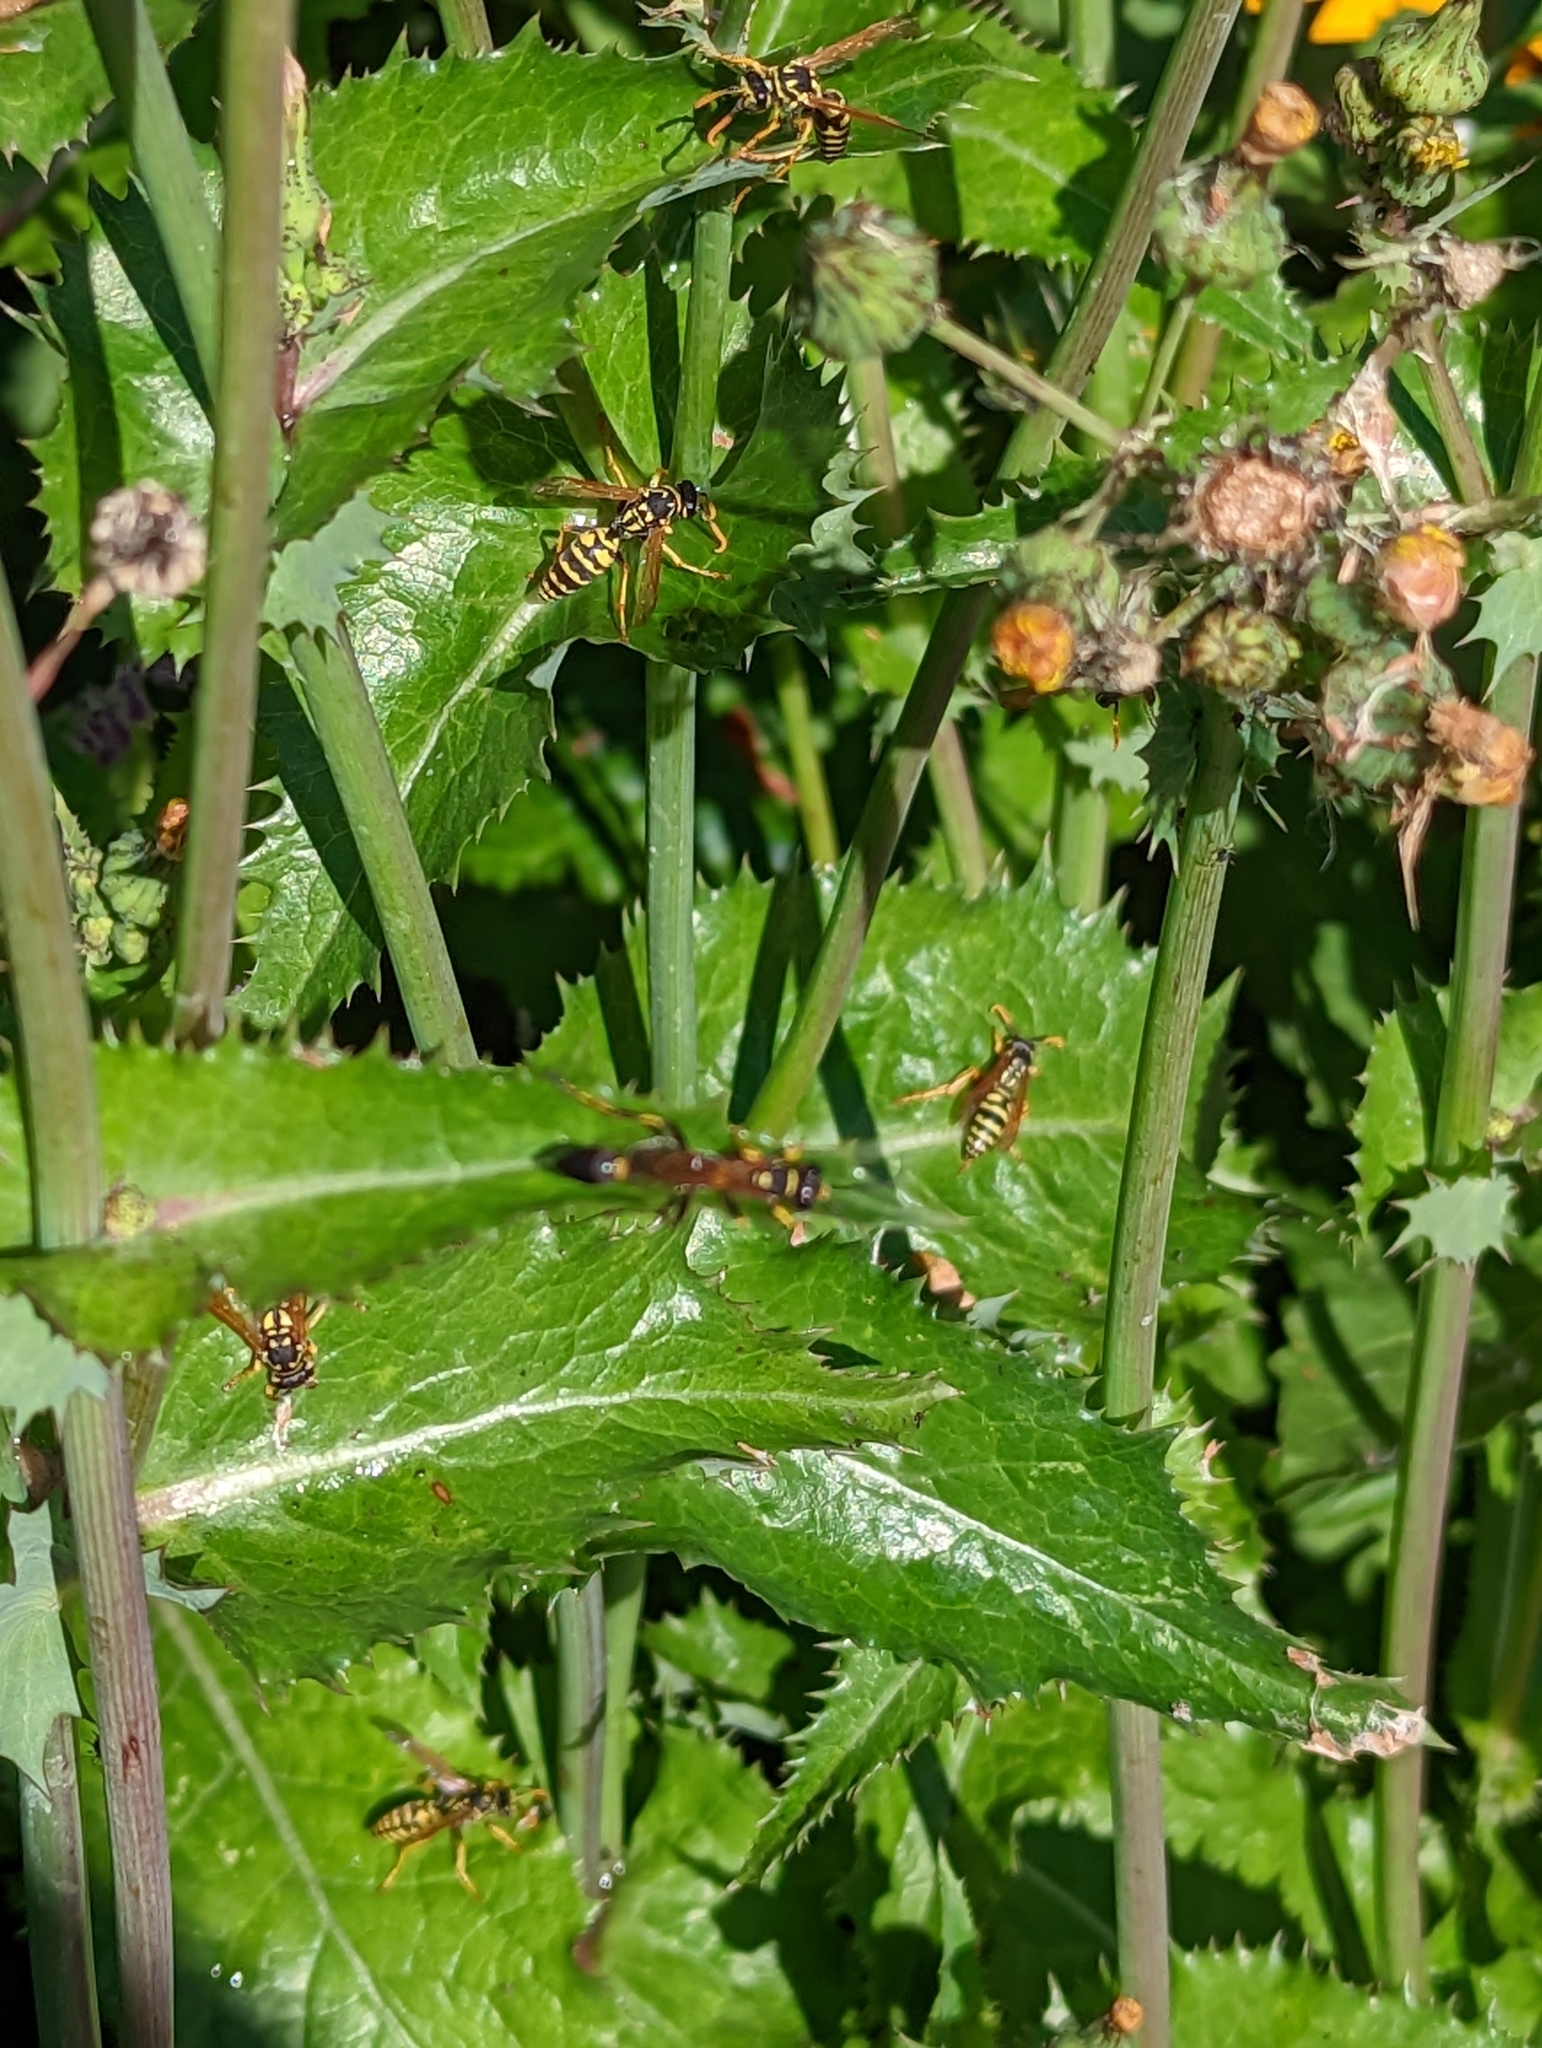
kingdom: Animalia
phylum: Arthropoda
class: Insecta
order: Hymenoptera
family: Sphecidae
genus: Sceliphron
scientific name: Sceliphron caementarium
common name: Mud dauber
